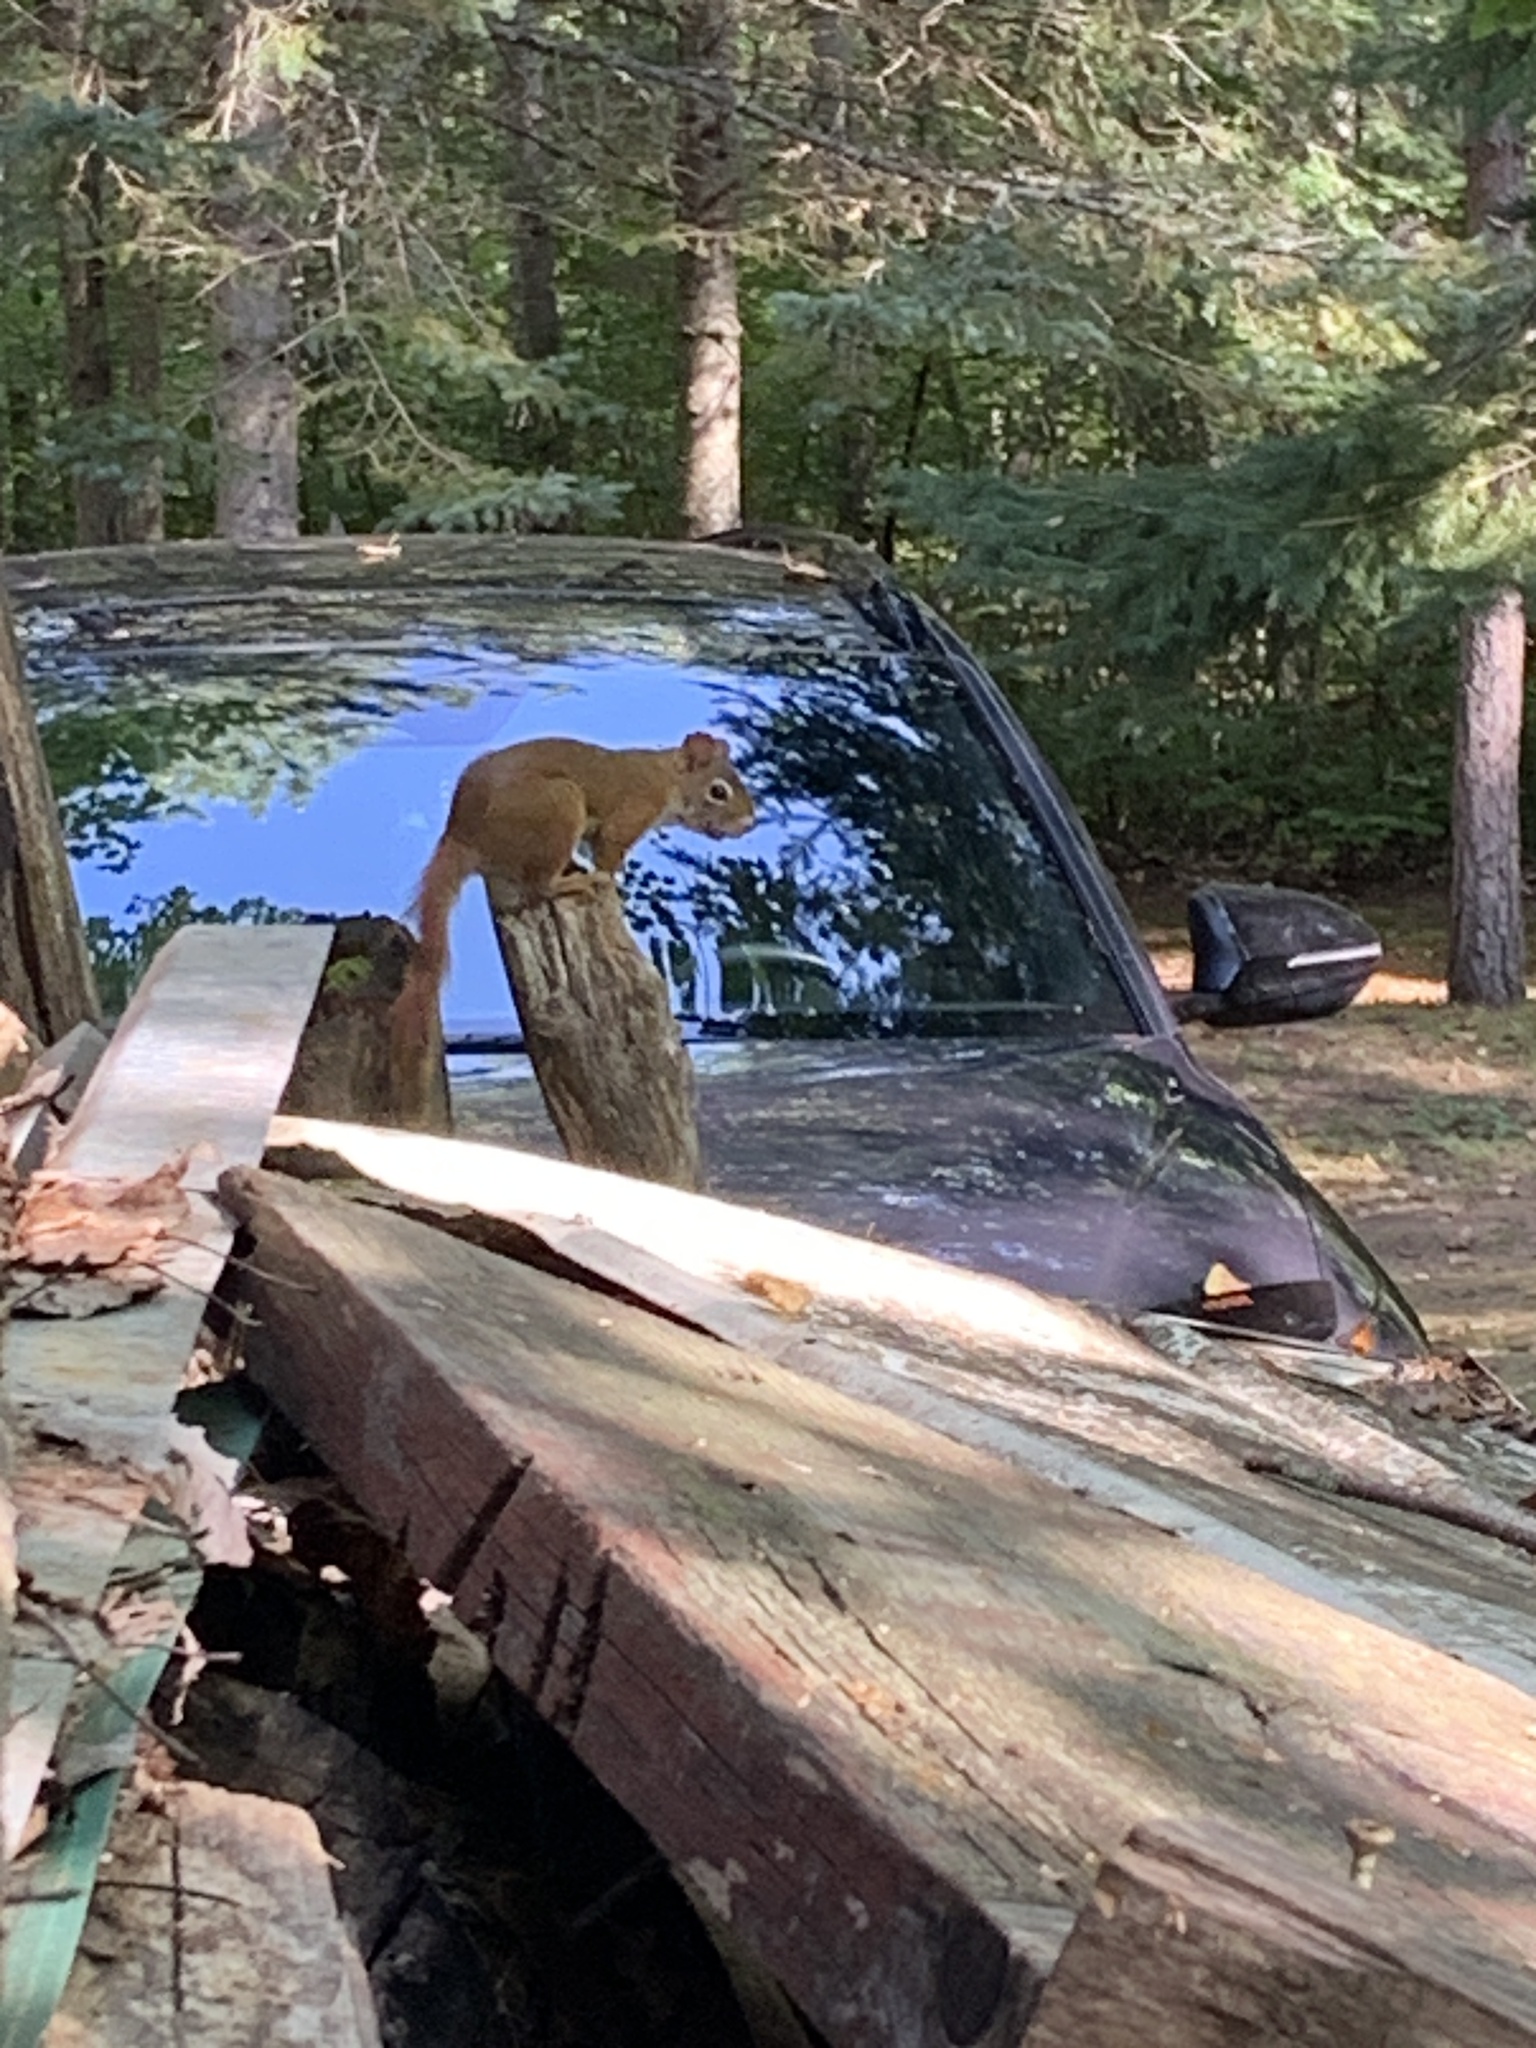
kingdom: Animalia
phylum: Chordata
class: Mammalia
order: Rodentia
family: Sciuridae
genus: Tamiasciurus
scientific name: Tamiasciurus hudsonicus
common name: Red squirrel
